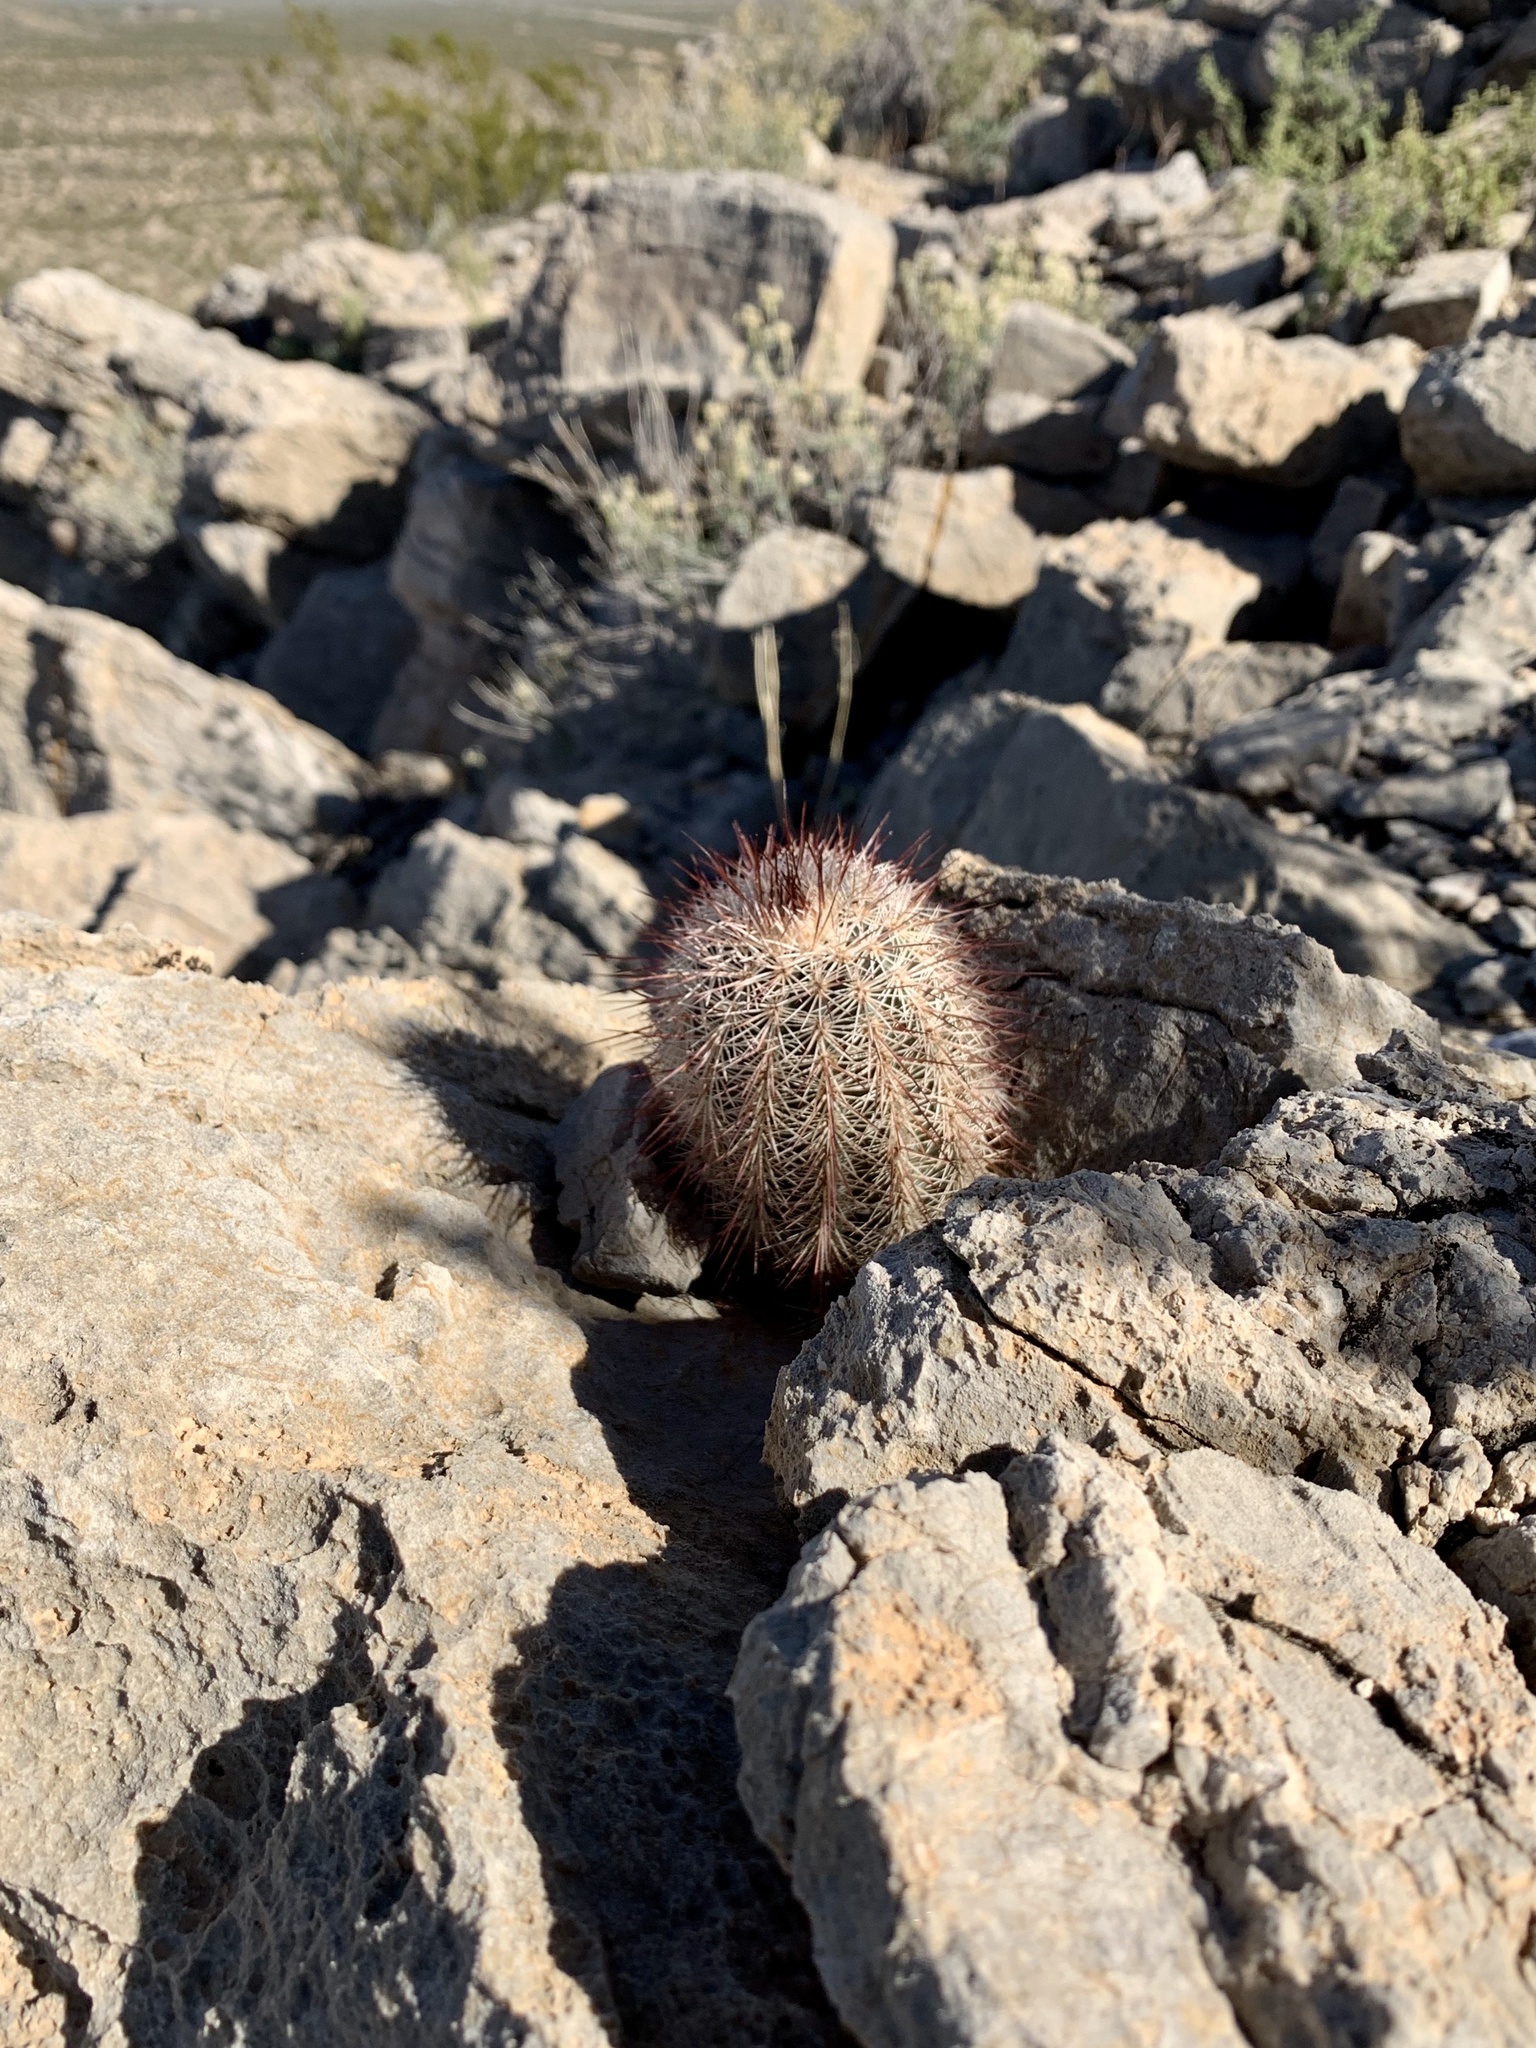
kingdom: Plantae
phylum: Tracheophyta
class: Magnoliopsida
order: Caryophyllales
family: Cactaceae
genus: Echinocereus
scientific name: Echinocereus dasyacanthus
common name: Spiny hedgehog cactus
